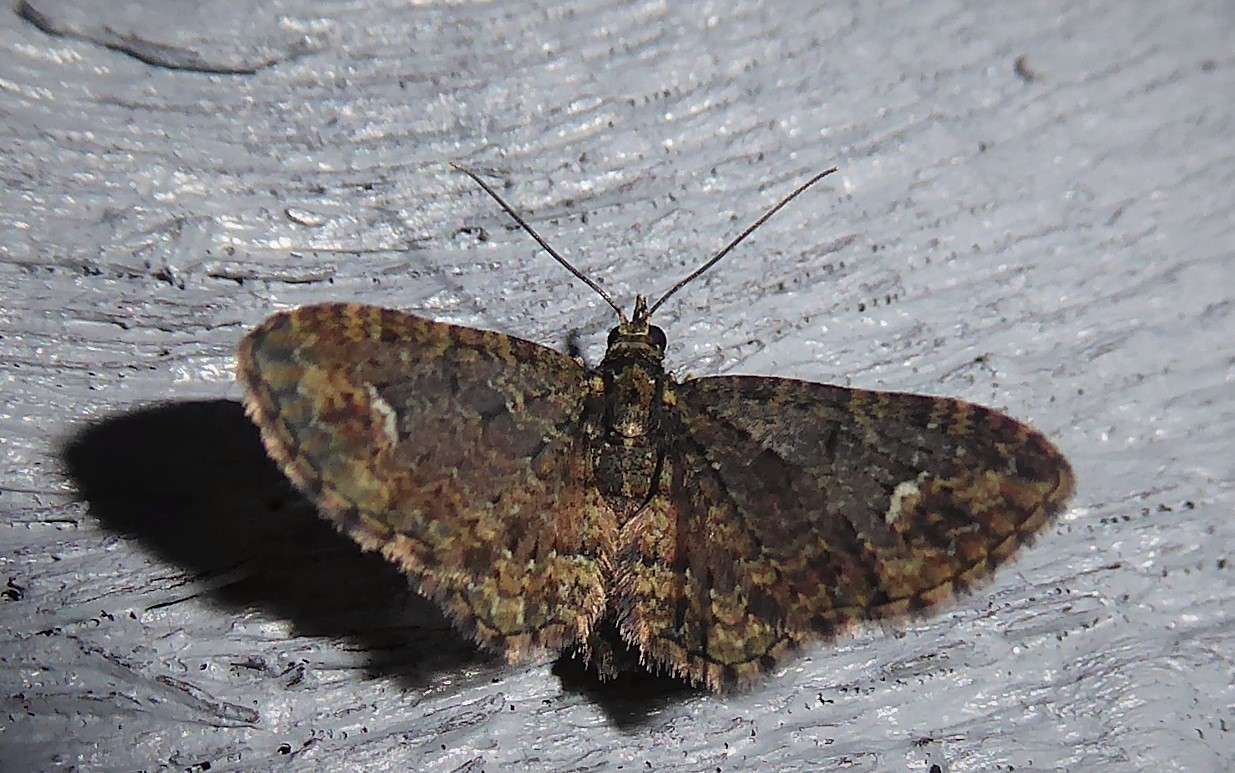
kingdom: Animalia
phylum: Arthropoda
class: Insecta
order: Lepidoptera
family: Geometridae
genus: Pasiphilodes
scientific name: Pasiphilodes testulata
